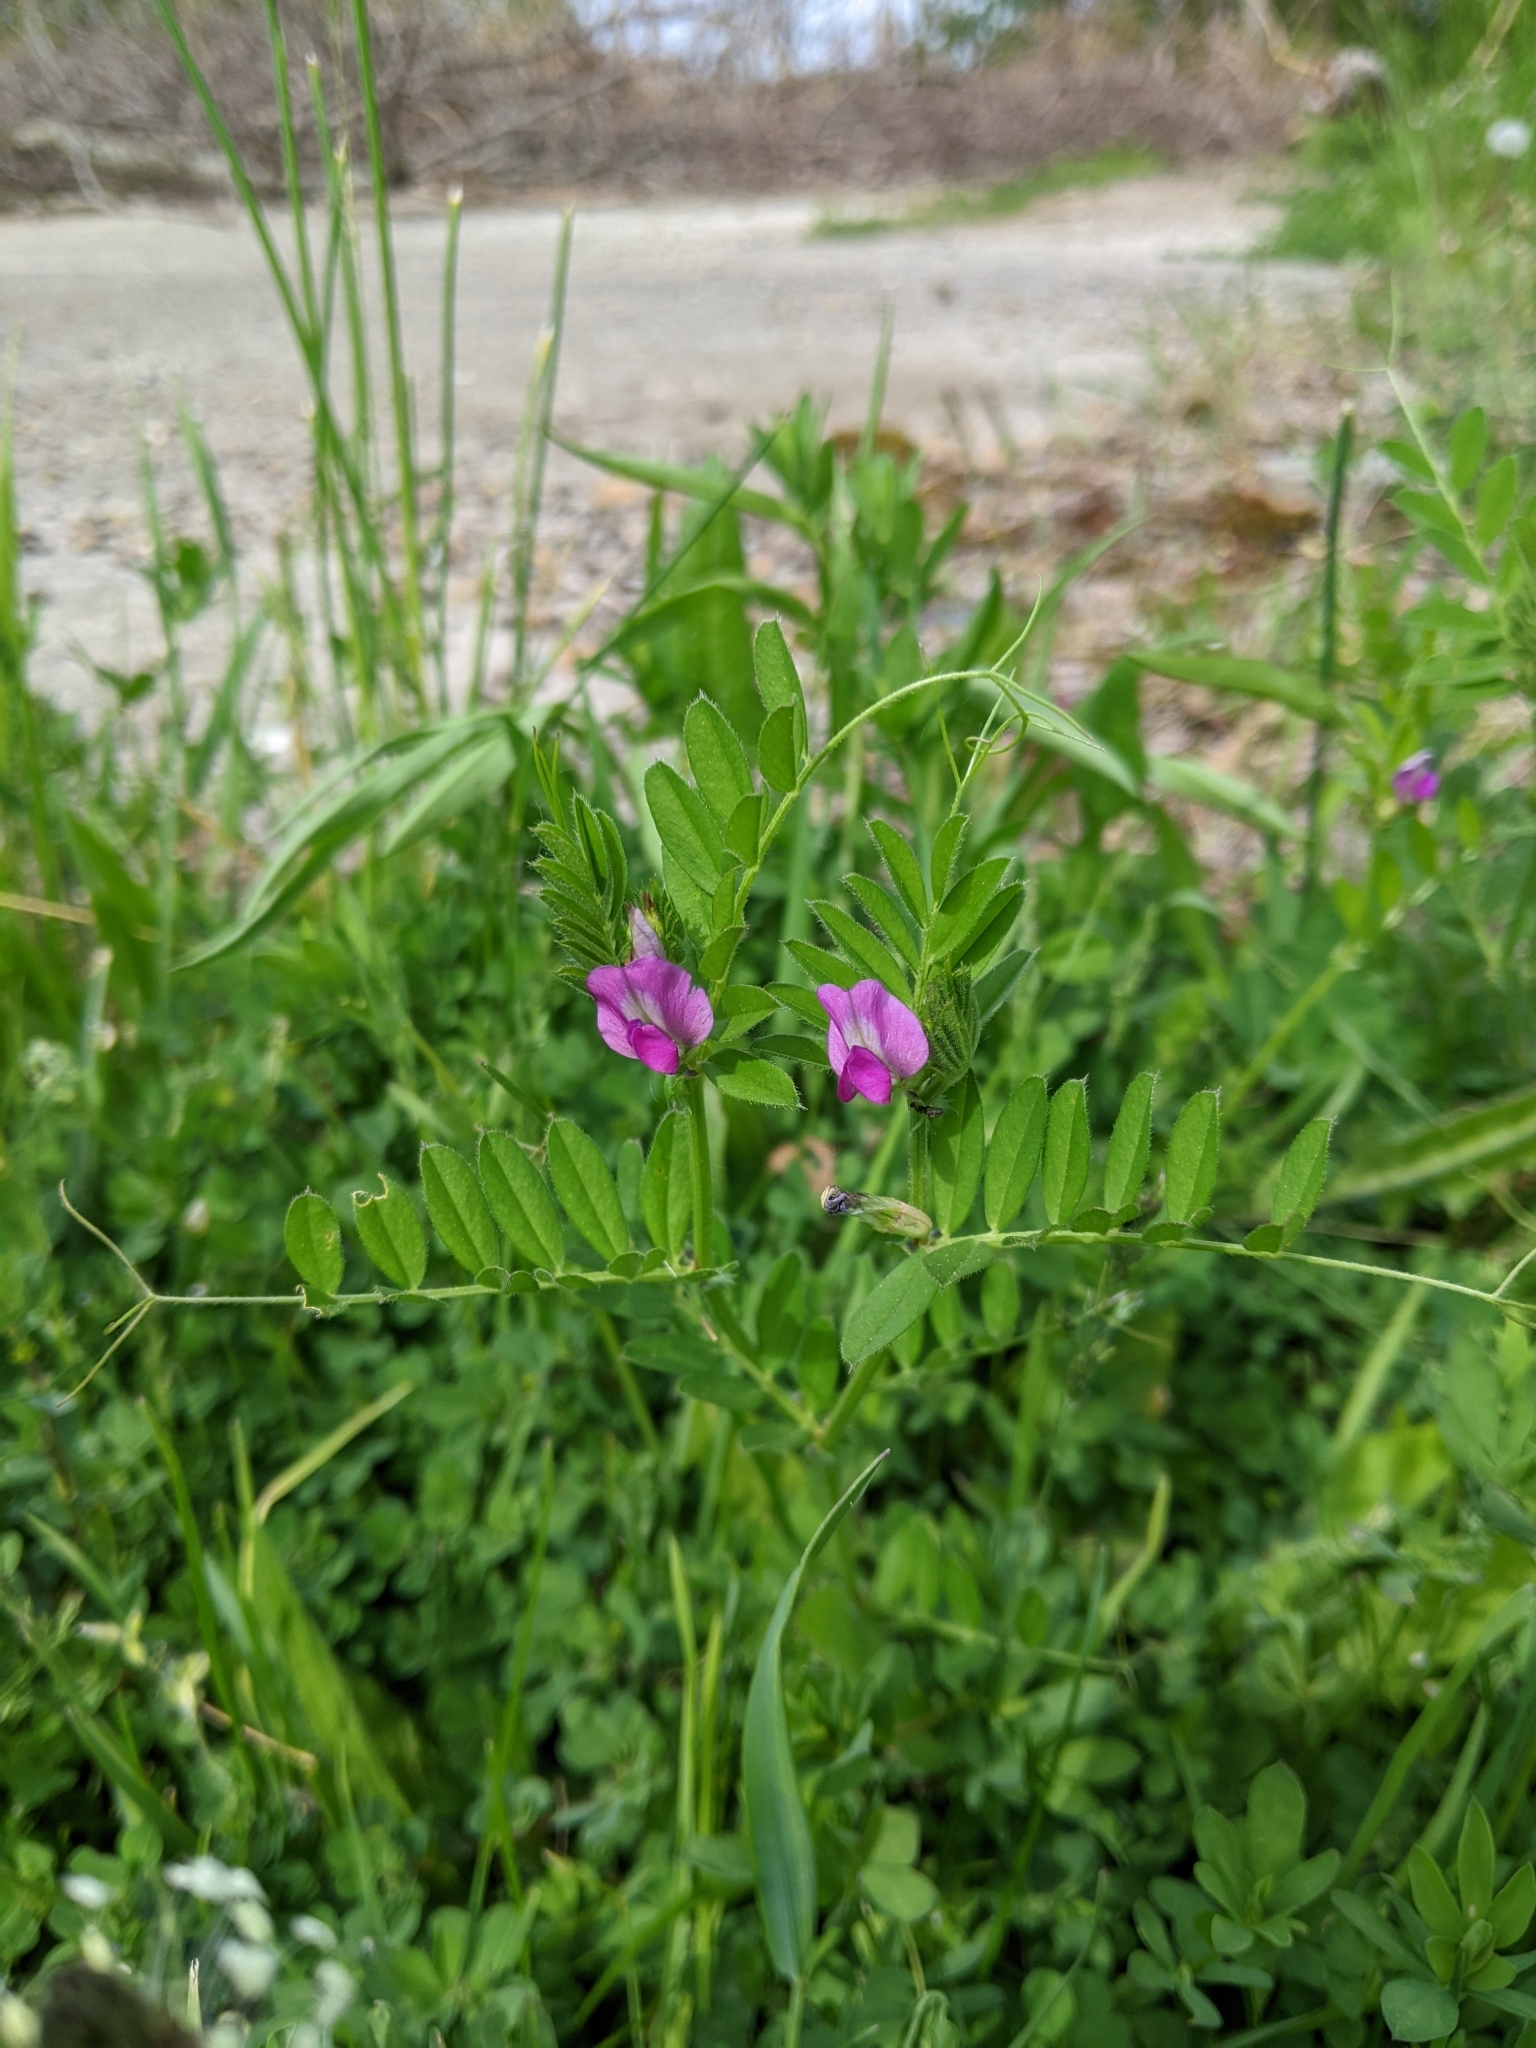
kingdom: Plantae
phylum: Tracheophyta
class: Magnoliopsida
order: Fabales
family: Fabaceae
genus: Vicia
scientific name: Vicia sativa
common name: Garden vetch
